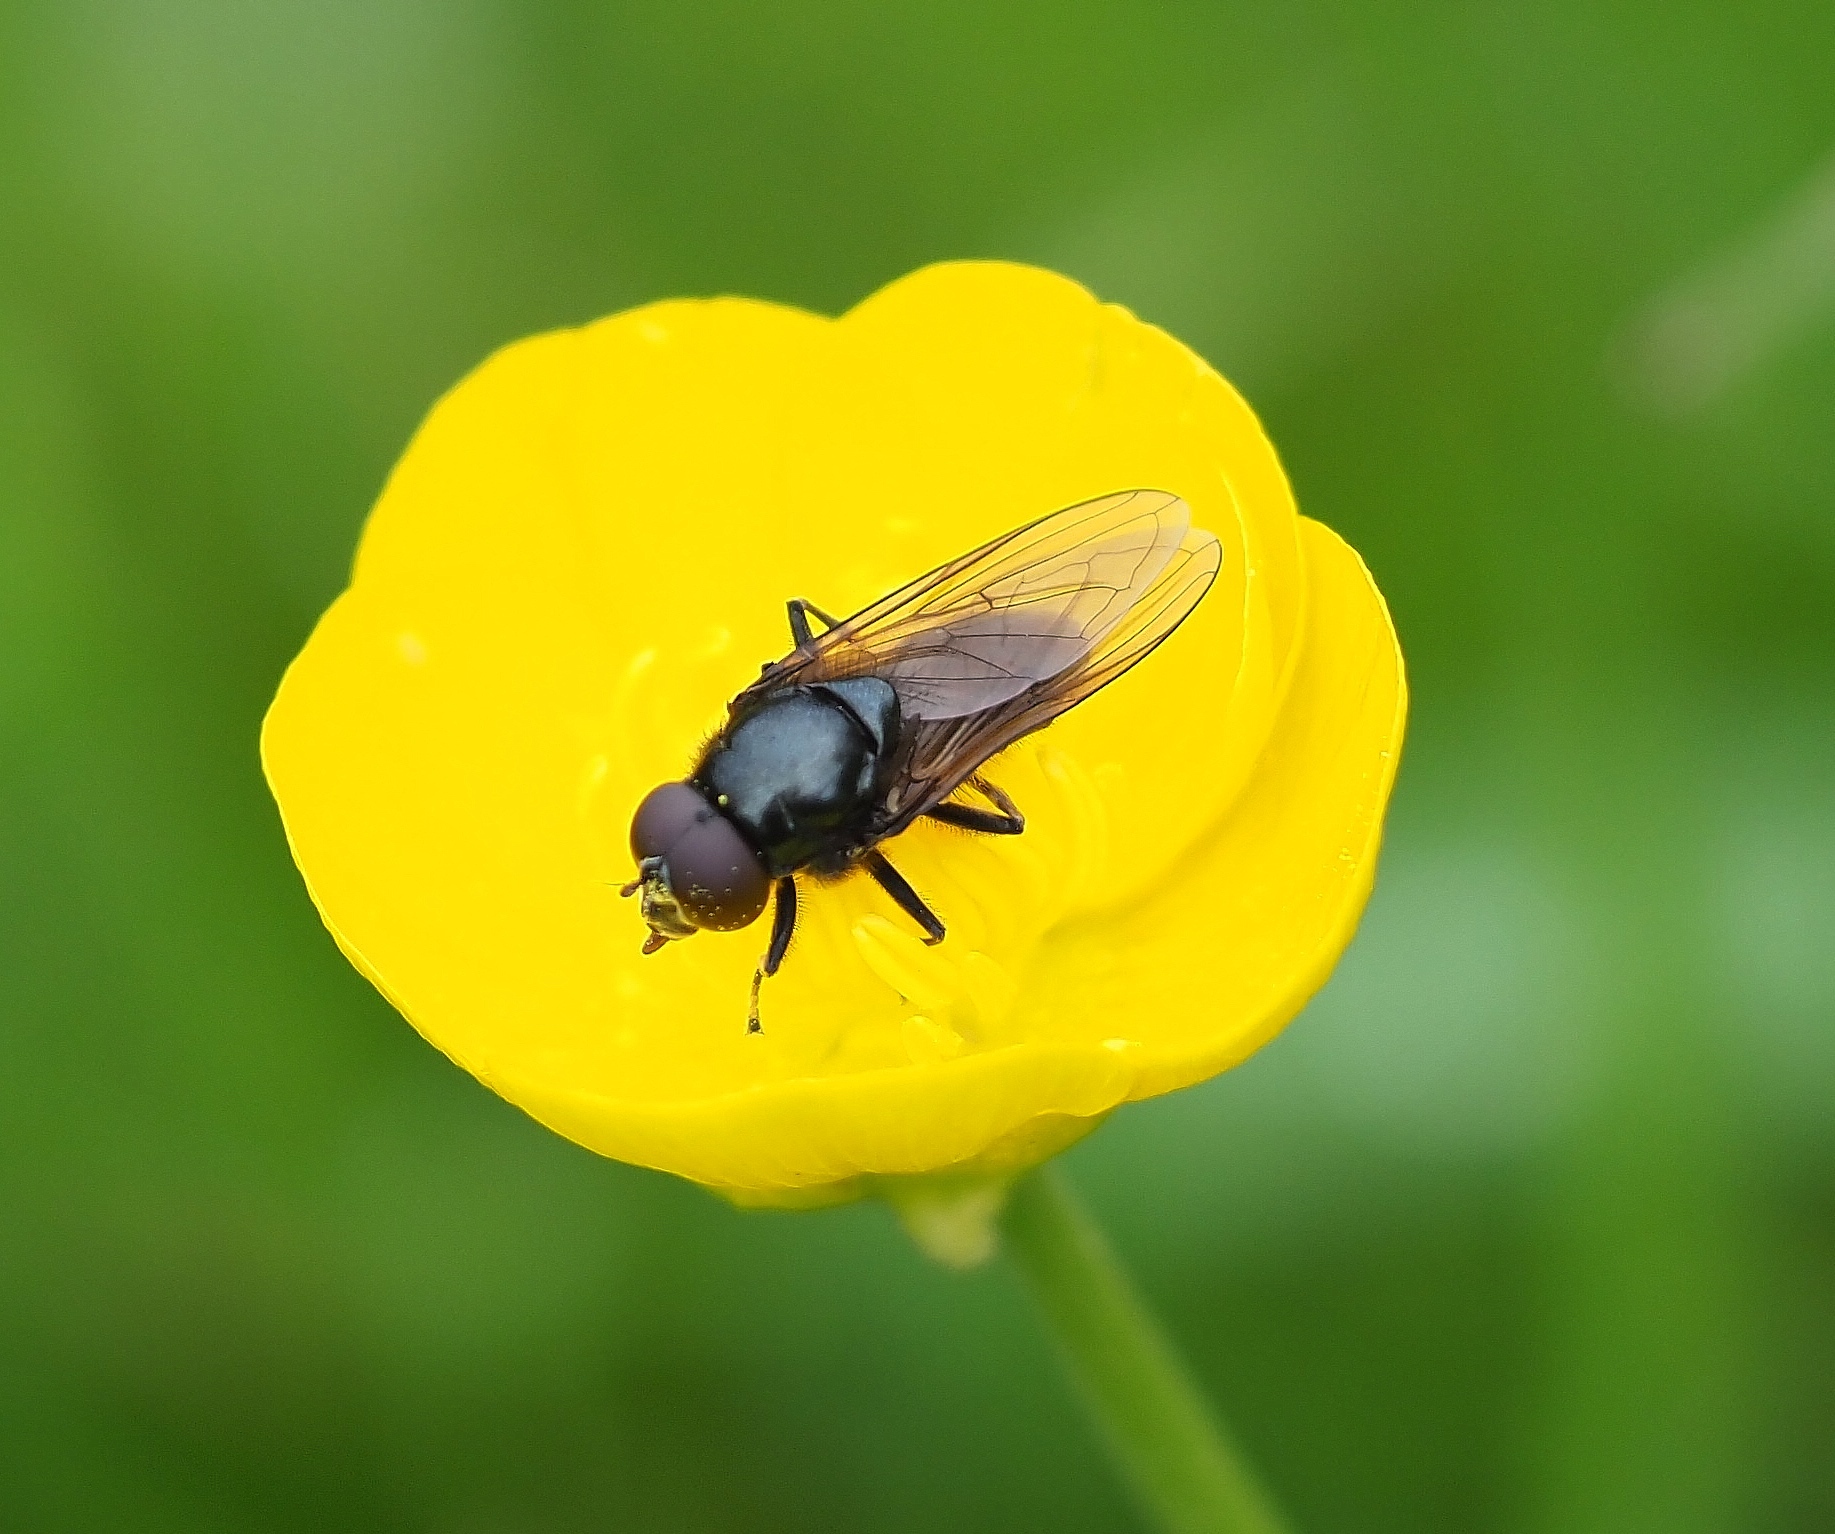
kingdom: Animalia
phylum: Arthropoda
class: Insecta
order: Diptera
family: Syrphidae
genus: Cheilosia
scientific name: Cheilosia
